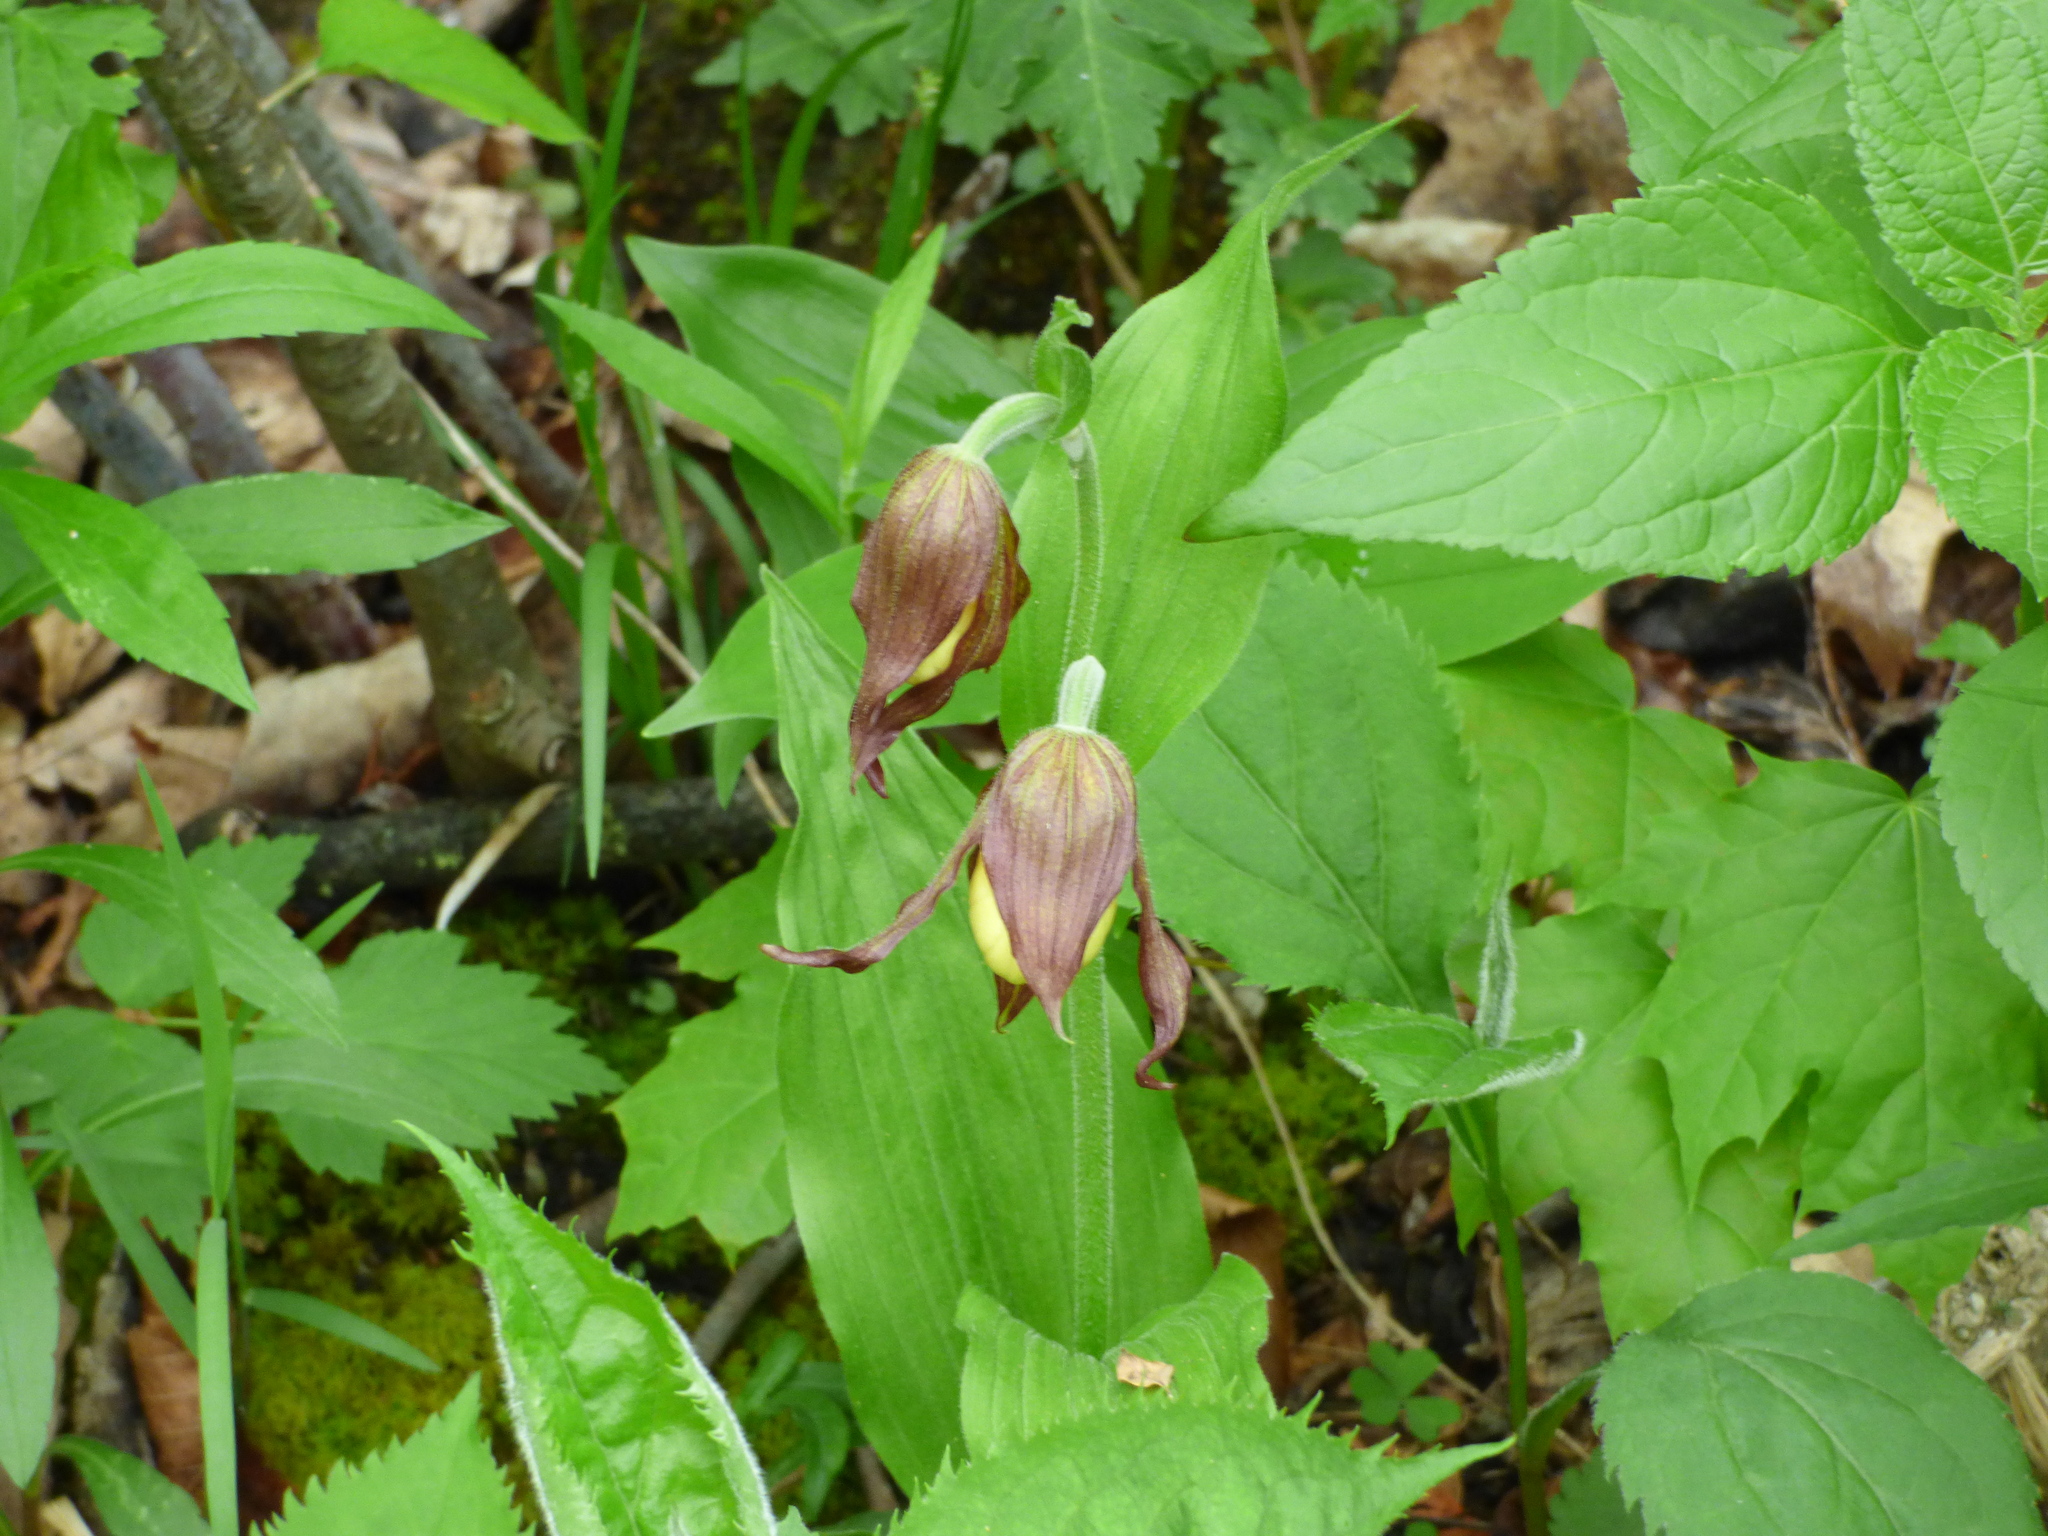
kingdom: Plantae
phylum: Tracheophyta
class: Liliopsida
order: Asparagales
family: Orchidaceae
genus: Cypripedium
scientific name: Cypripedium parviflorum
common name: American yellow lady's-slipper
